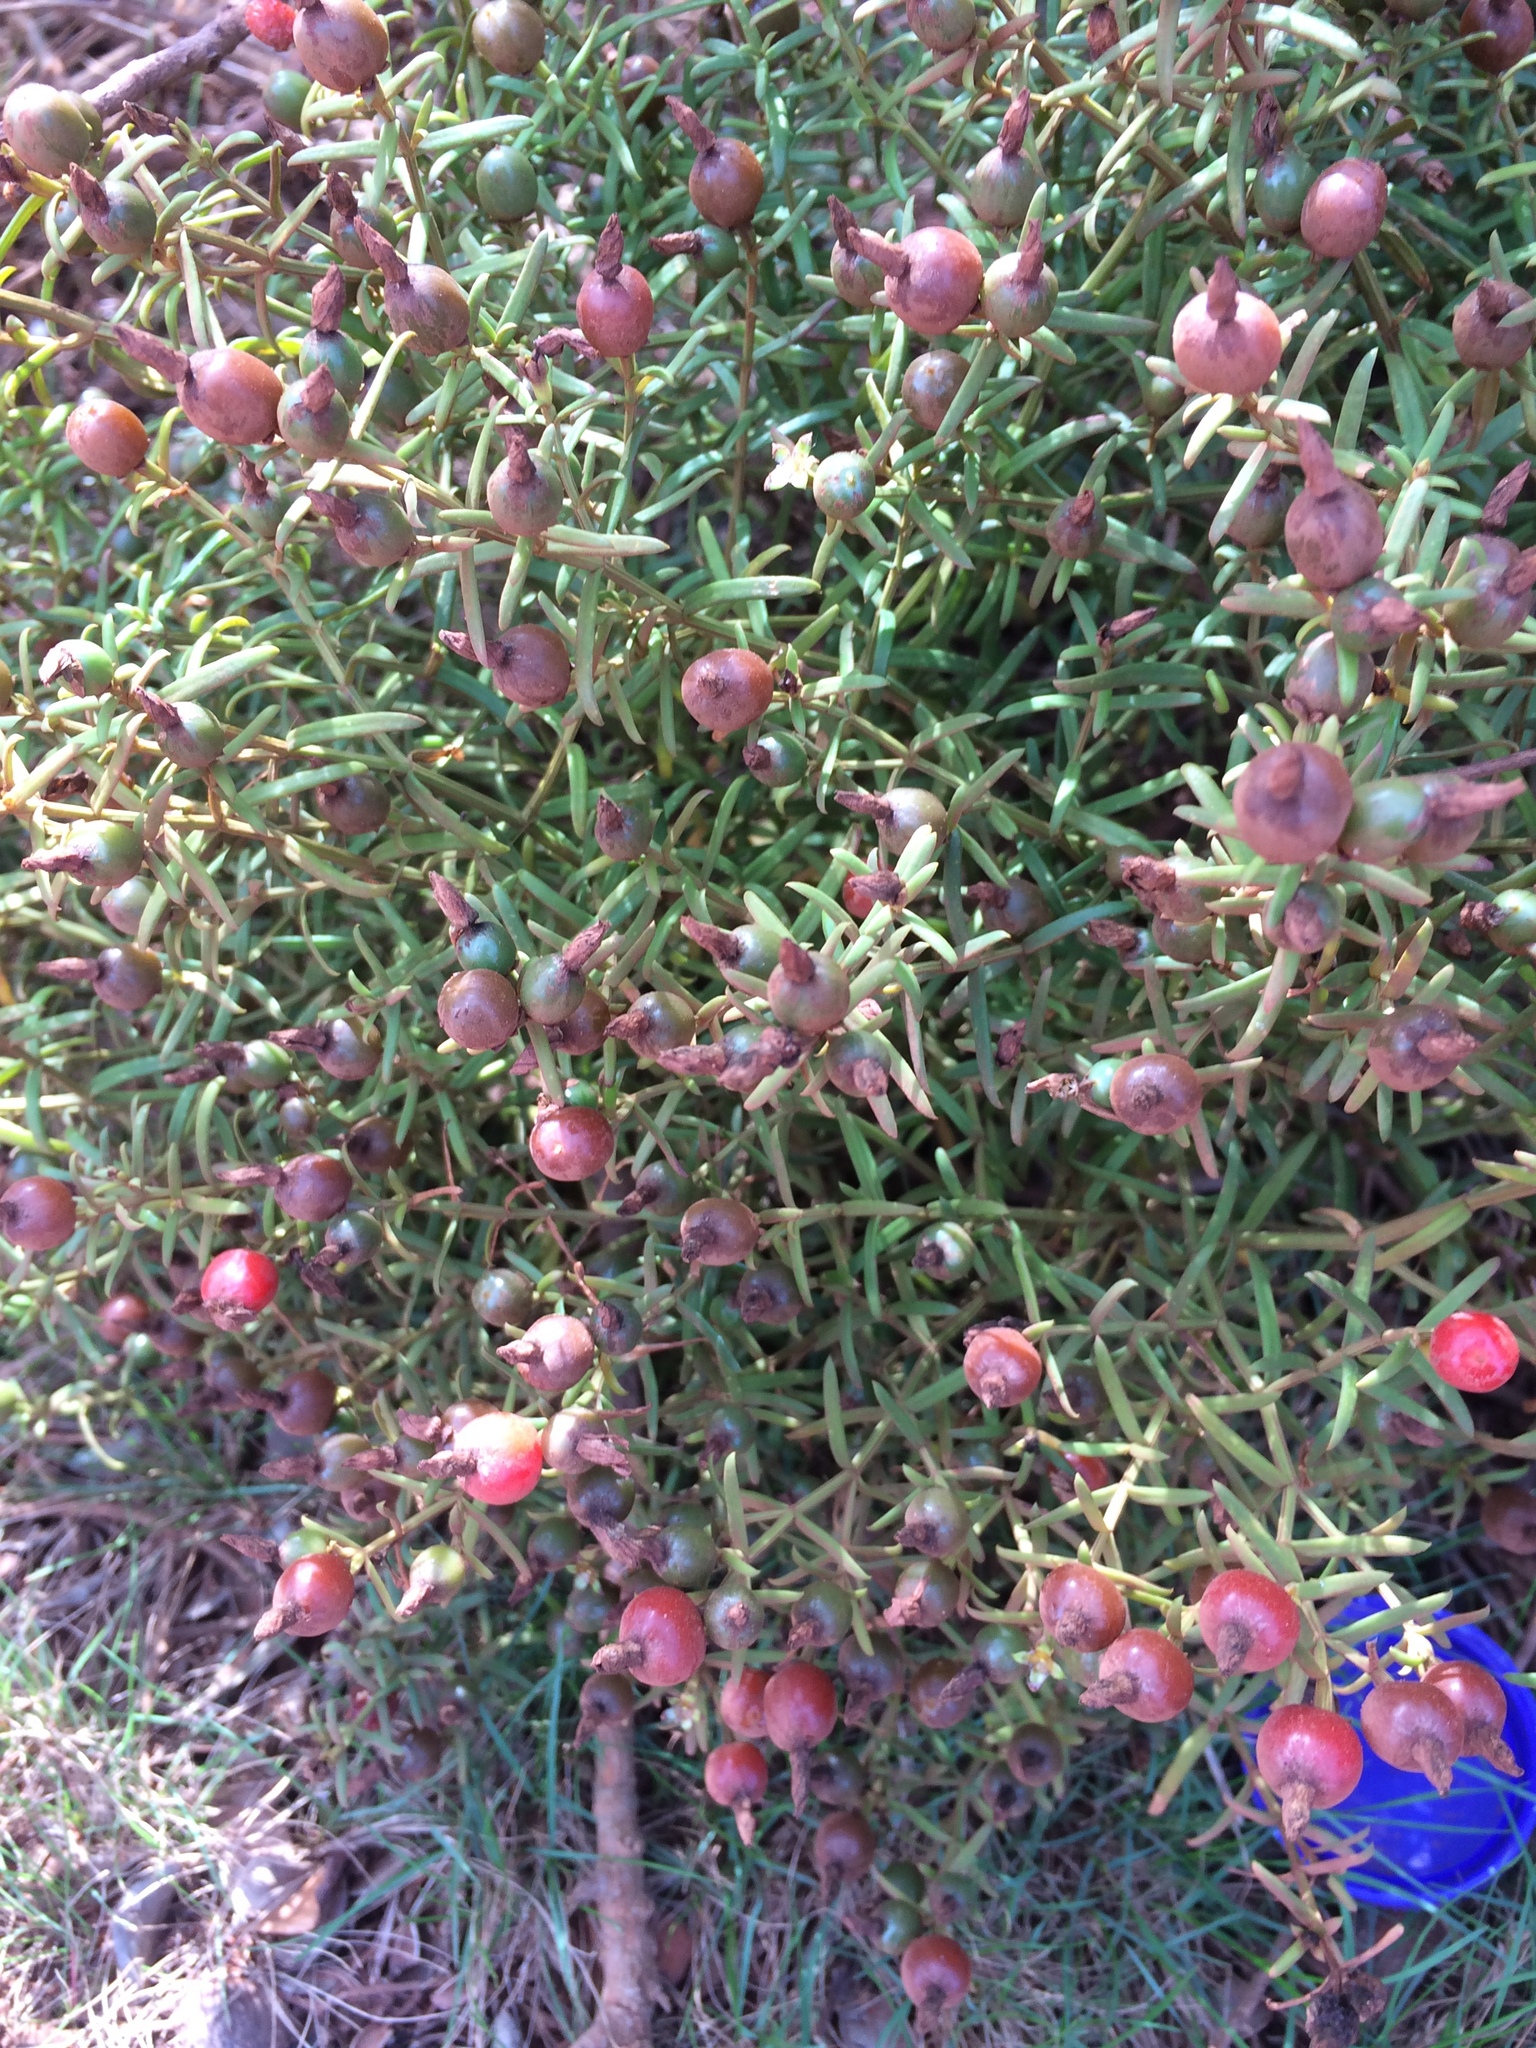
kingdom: Plantae
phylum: Tracheophyta
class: Magnoliopsida
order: Gentianales
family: Gentianaceae
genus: Chironia
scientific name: Chironia baccifera
